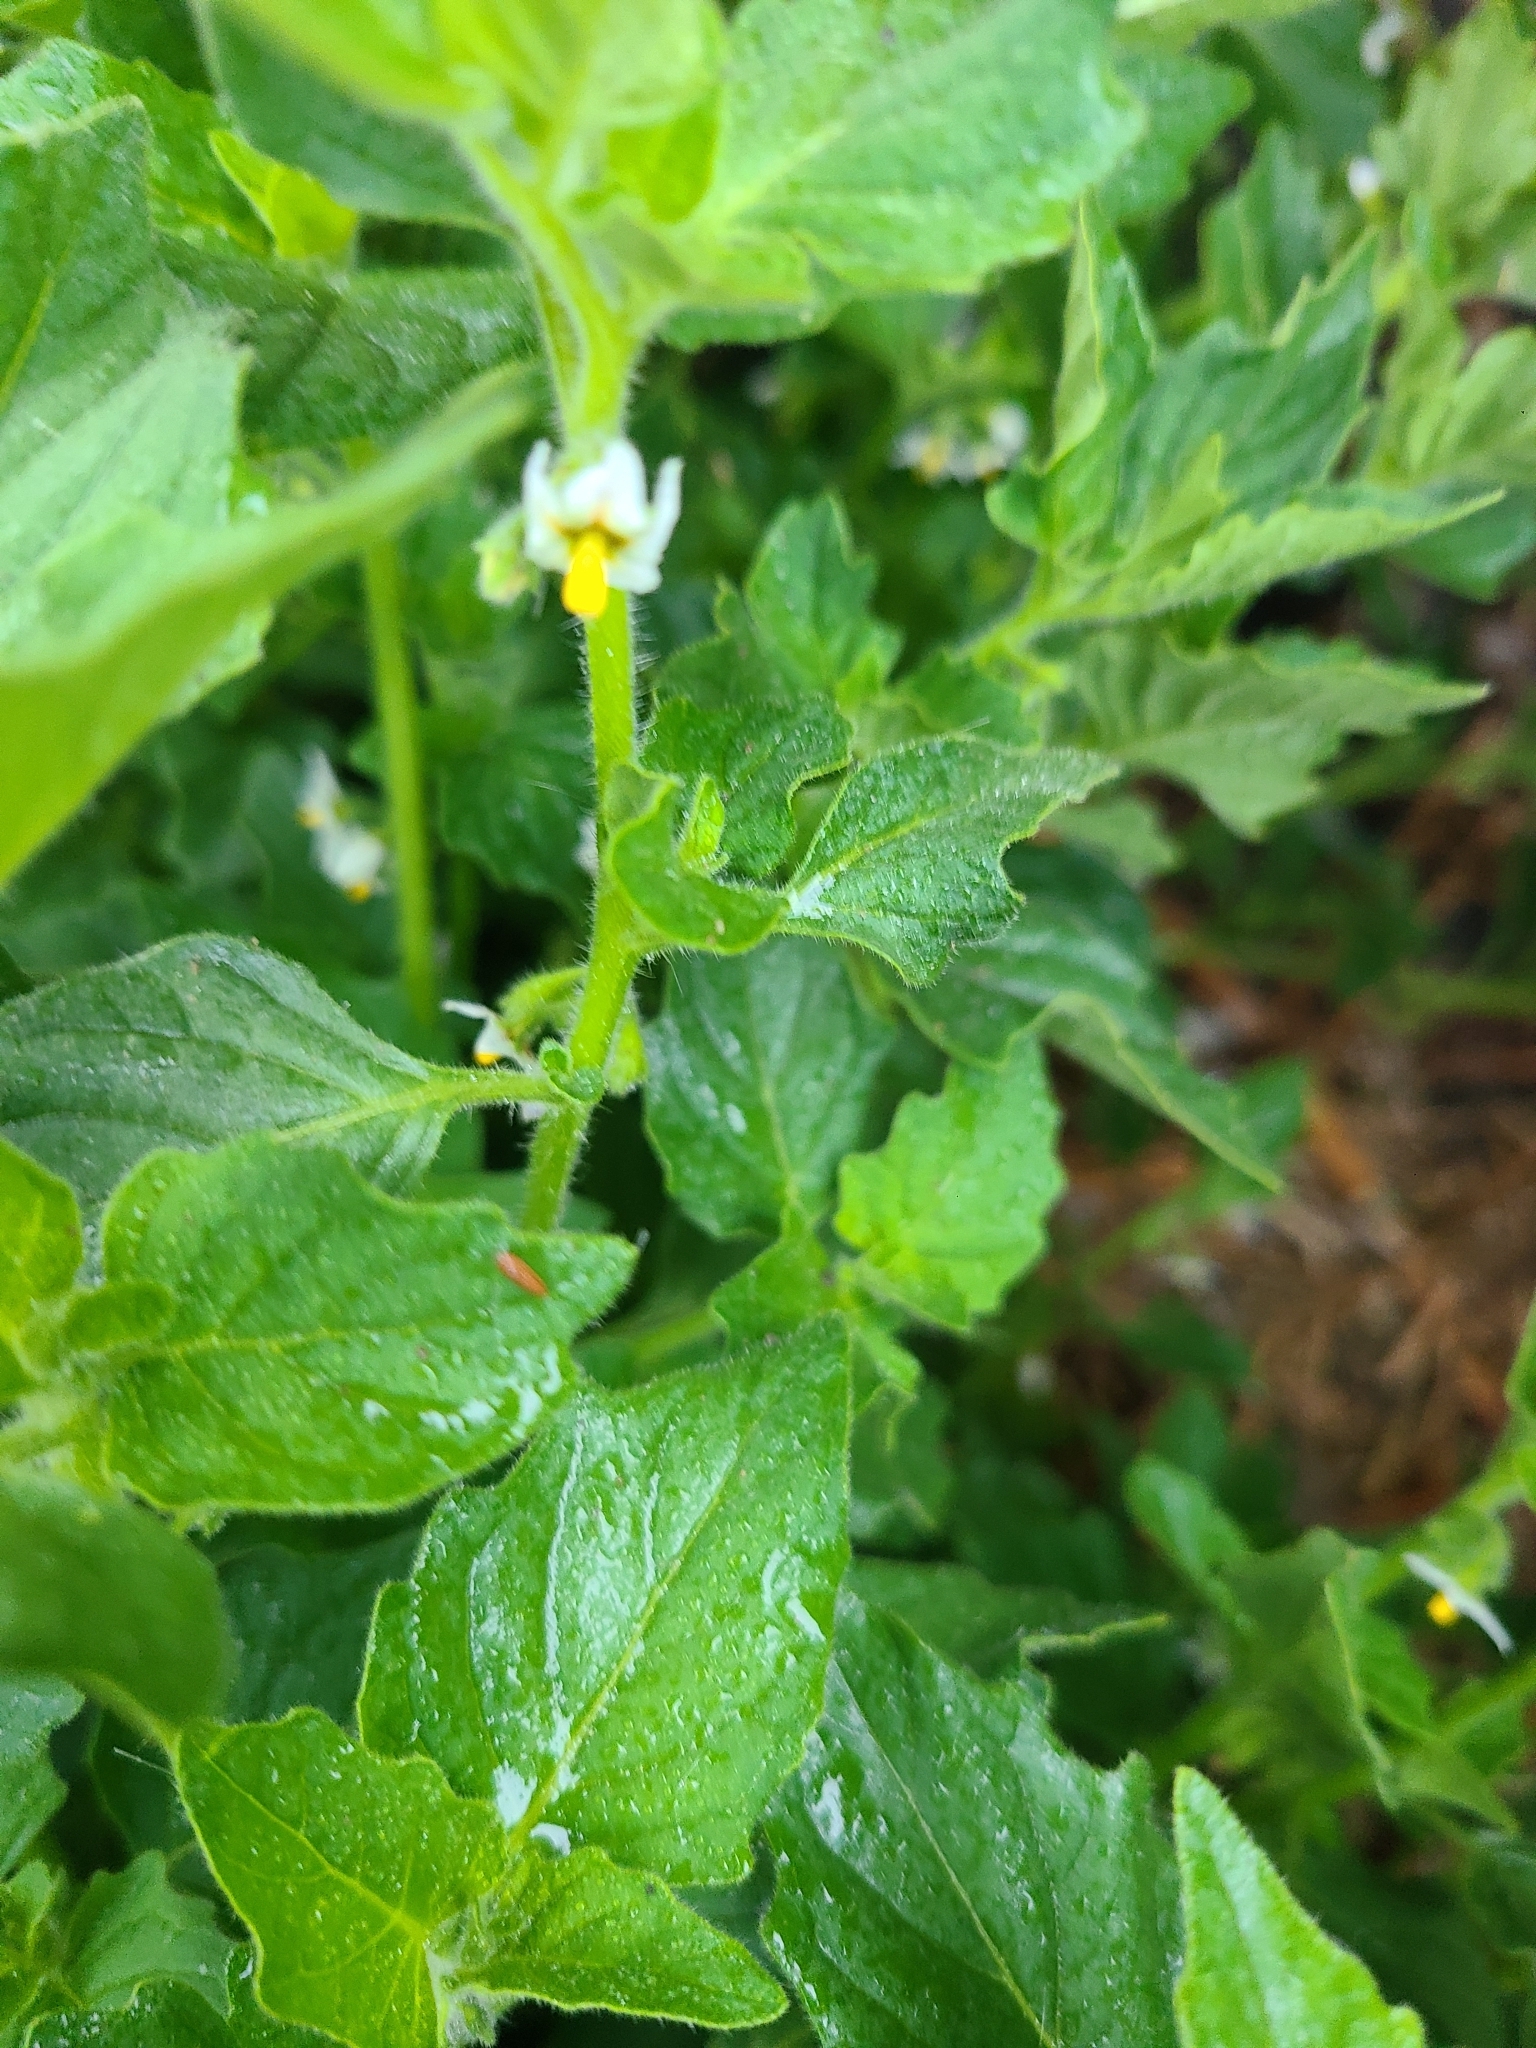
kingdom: Plantae
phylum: Tracheophyta
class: Magnoliopsida
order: Solanales
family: Solanaceae
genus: Solanum
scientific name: Solanum nitidibaccatum
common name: Hairy nightshade
